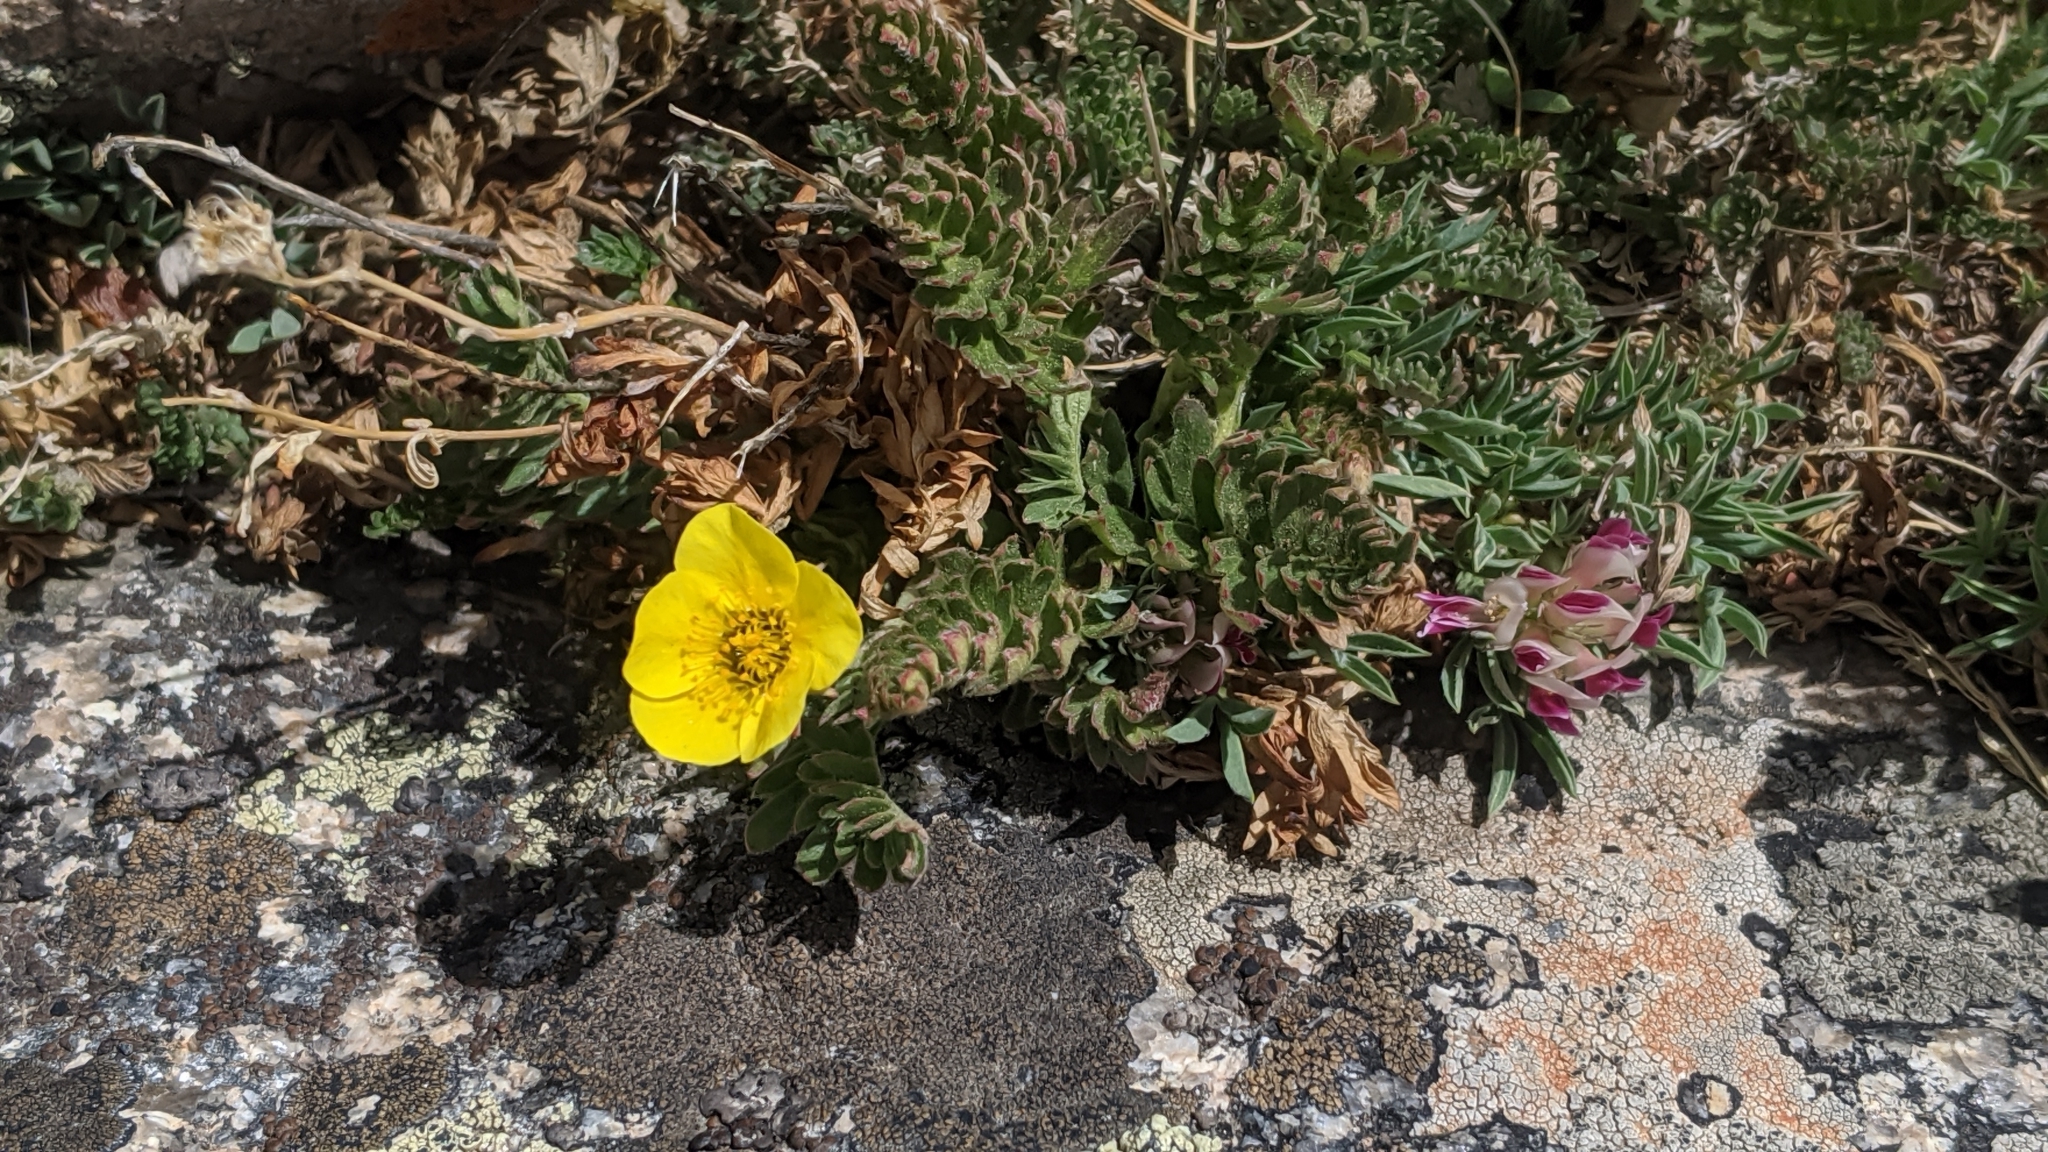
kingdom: Plantae
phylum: Tracheophyta
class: Magnoliopsida
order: Rosales
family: Rosaceae
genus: Geum
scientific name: Geum rossii
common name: Alpine avens
